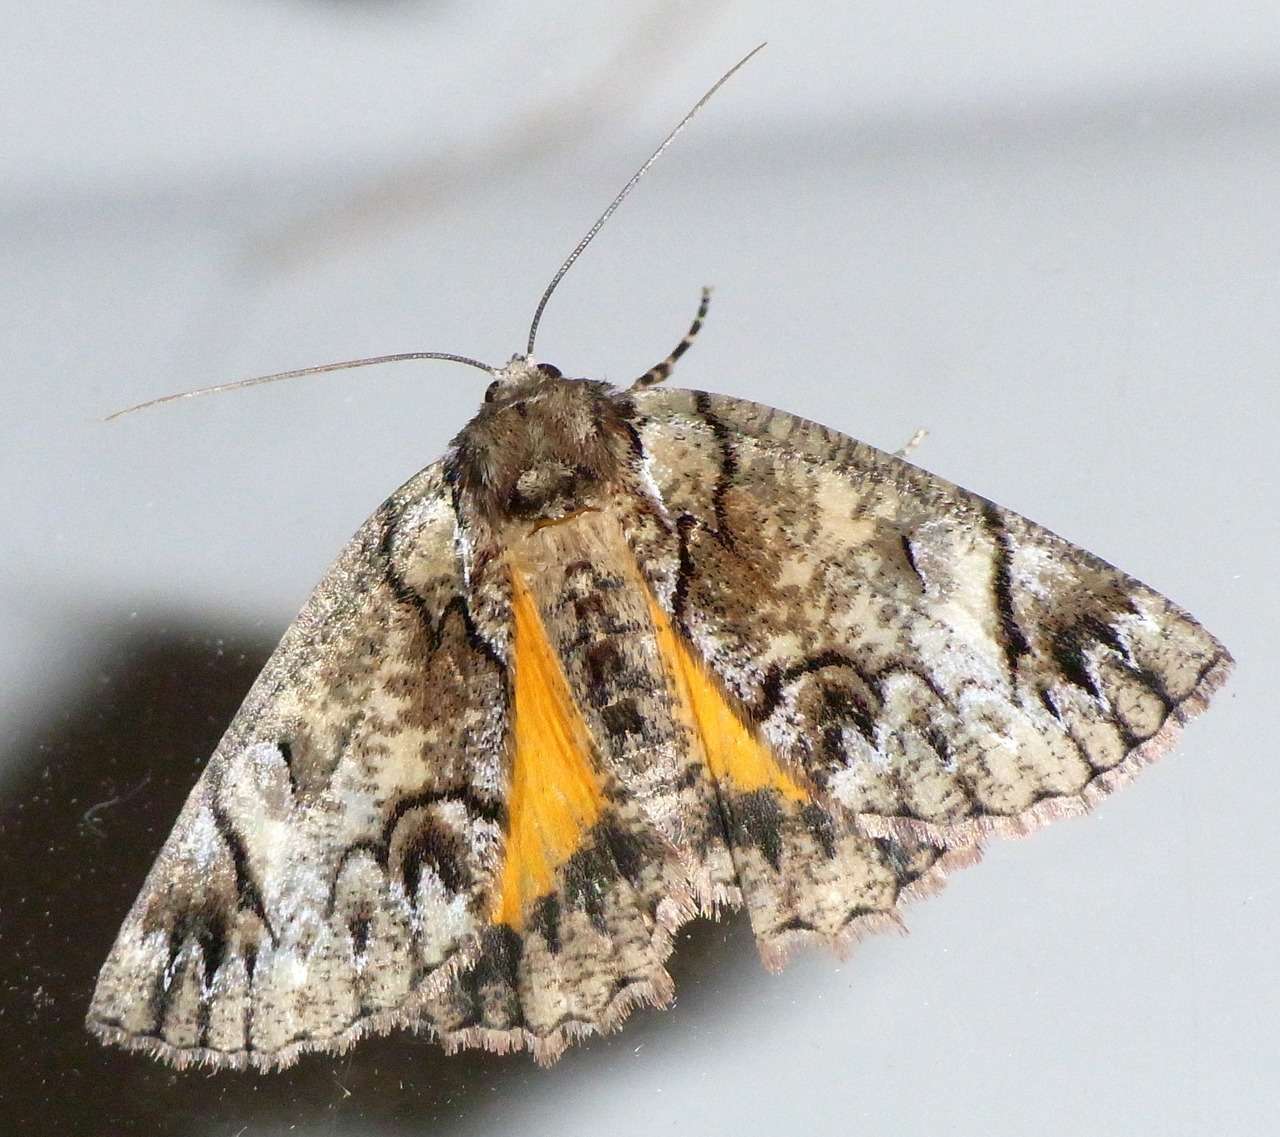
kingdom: Animalia
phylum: Arthropoda
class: Insecta
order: Lepidoptera
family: Geometridae
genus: Heliomystis
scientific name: Heliomystis electrica
